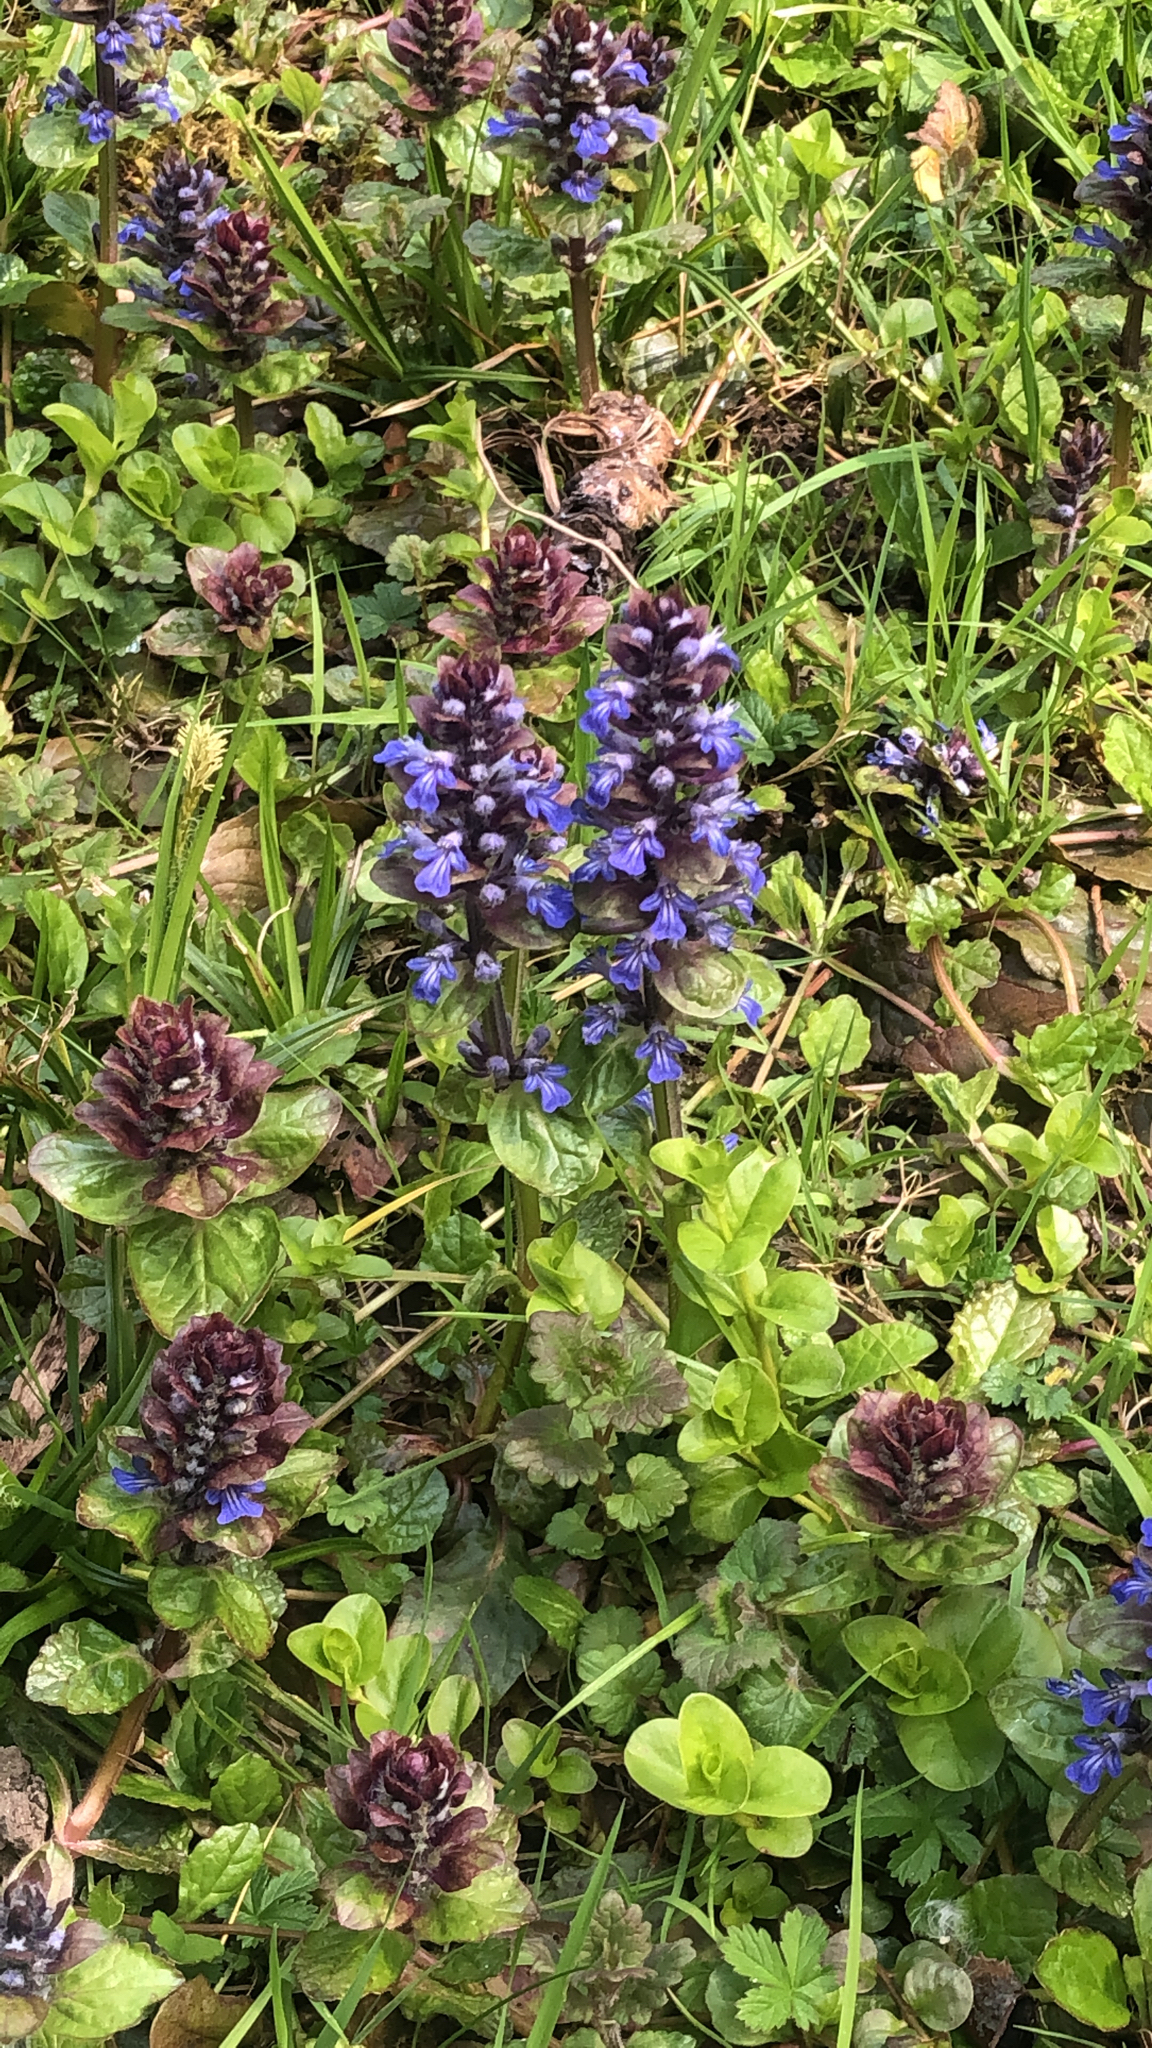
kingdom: Plantae
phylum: Tracheophyta
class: Magnoliopsida
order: Lamiales
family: Lamiaceae
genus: Ajuga
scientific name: Ajuga reptans
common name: Bugle
